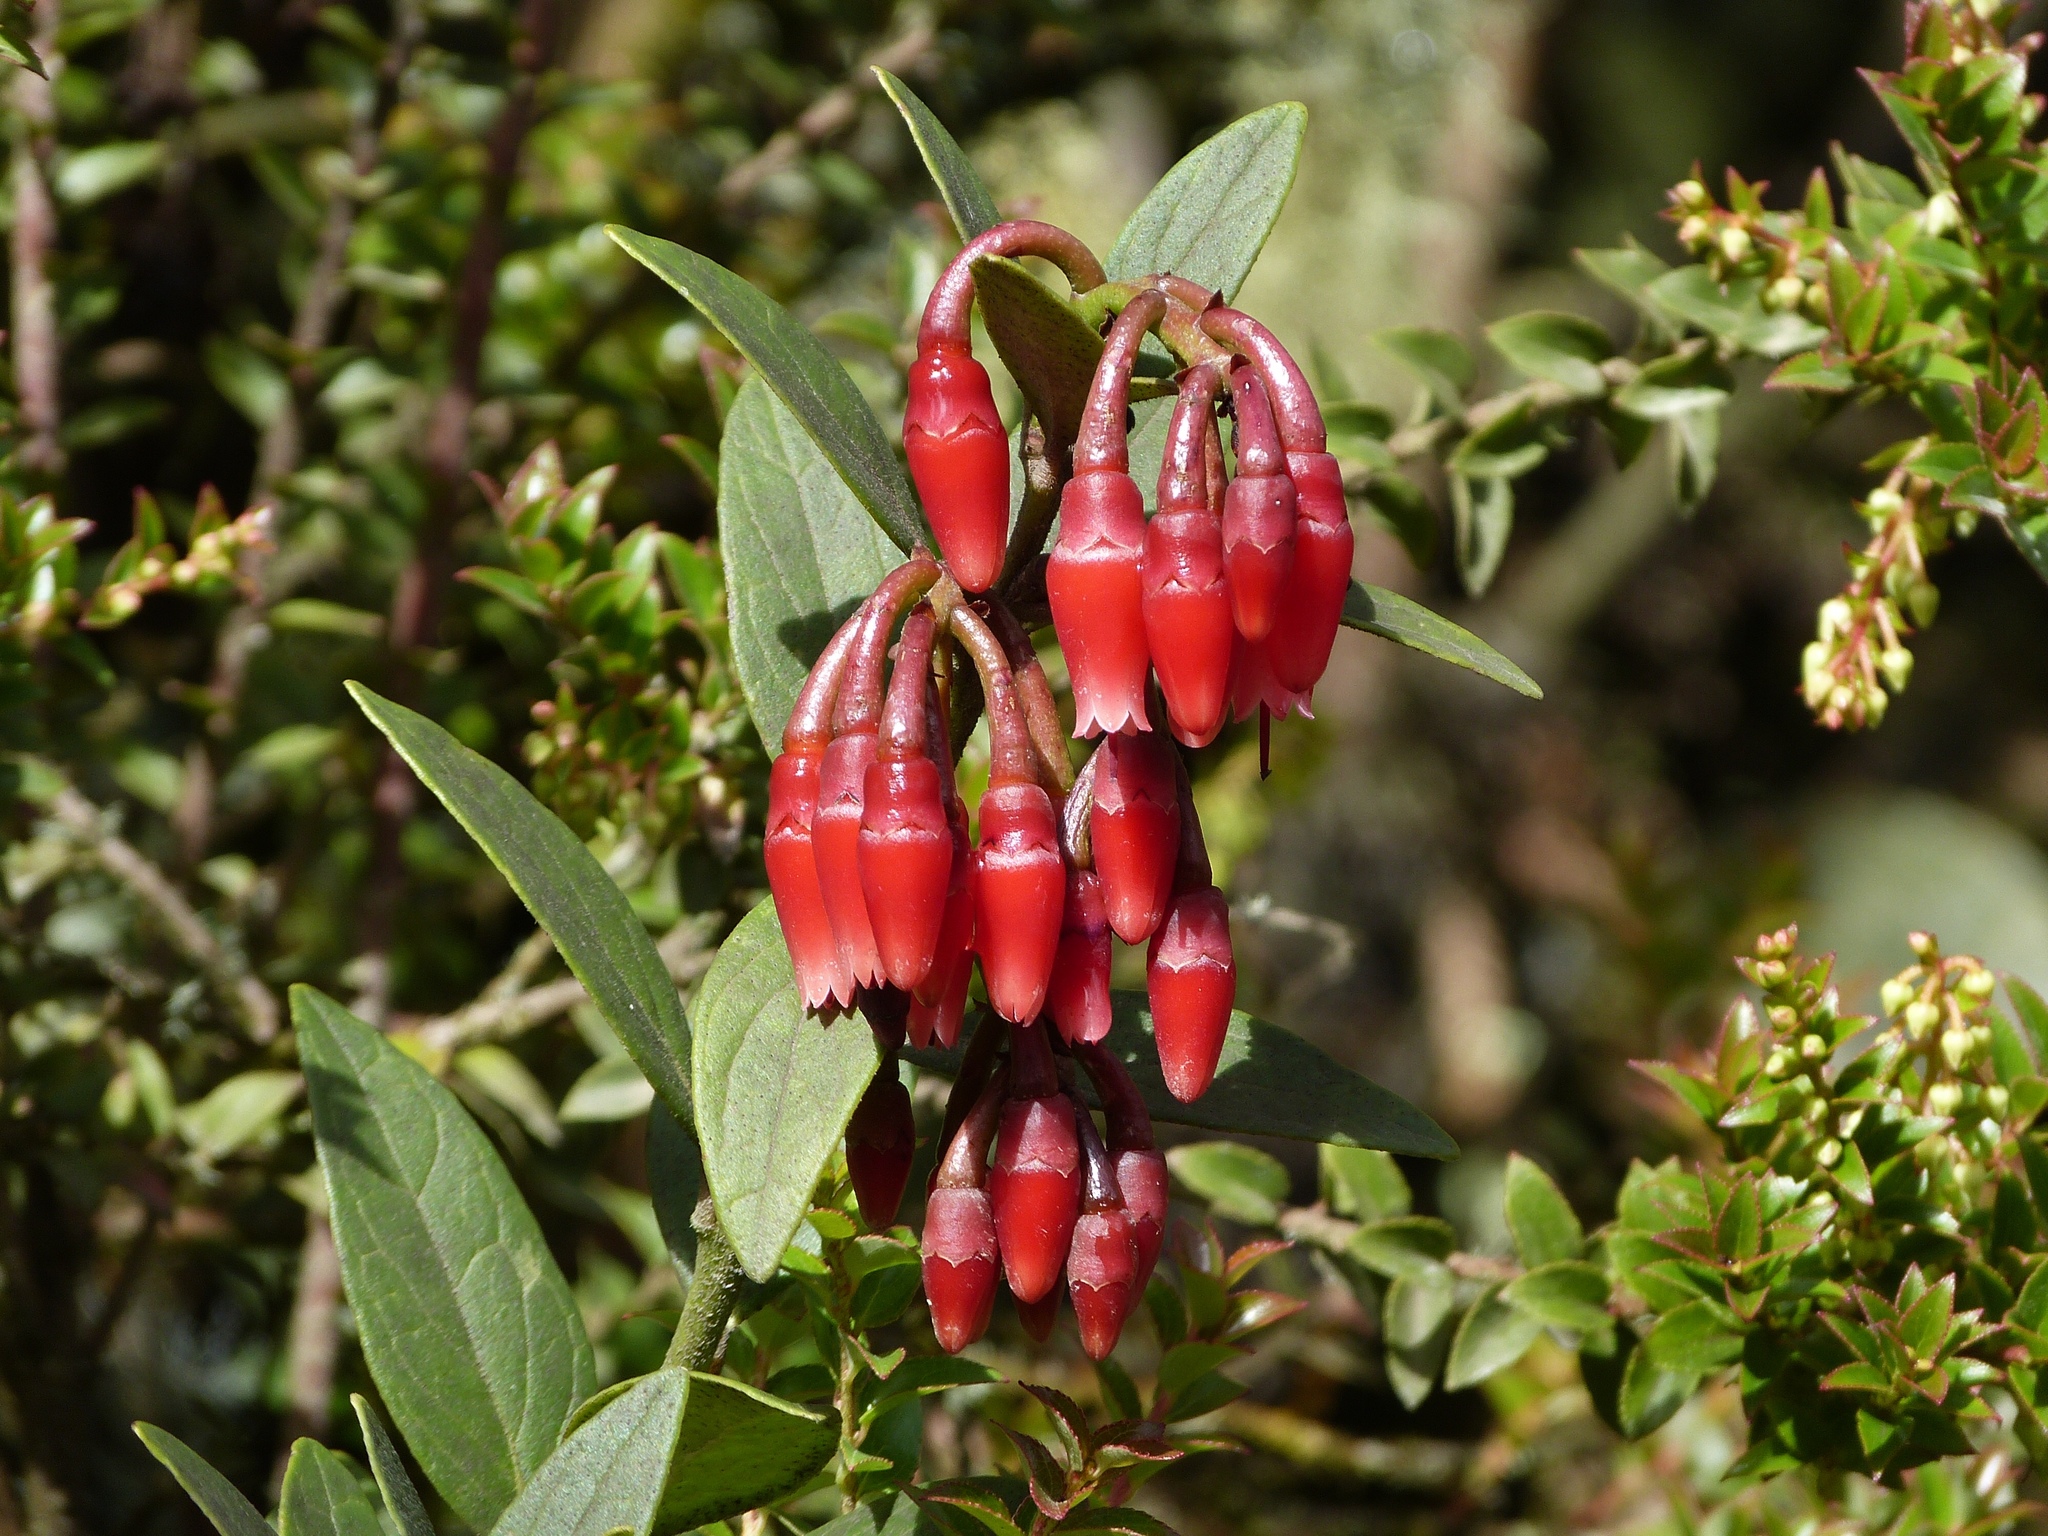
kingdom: Plantae
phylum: Tracheophyta
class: Magnoliopsida
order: Ericales
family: Ericaceae
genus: Macleania
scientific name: Macleania rupestris
